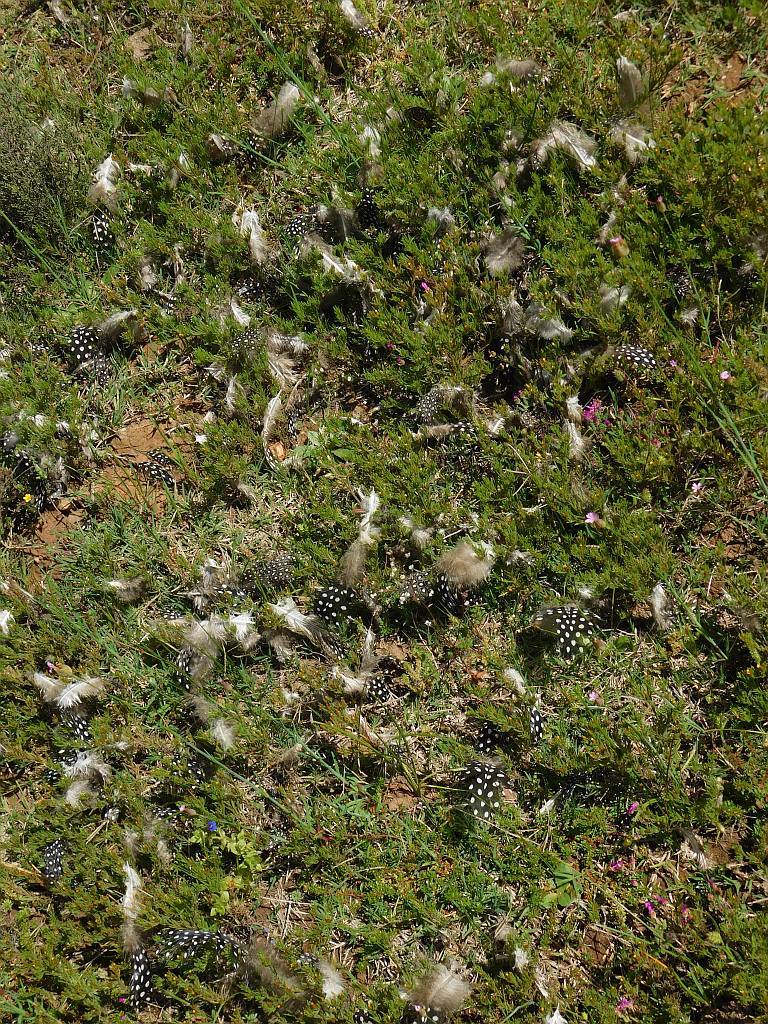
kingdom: Animalia
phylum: Chordata
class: Aves
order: Galliformes
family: Numididae
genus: Numida
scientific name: Numida meleagris
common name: Helmeted guineafowl
